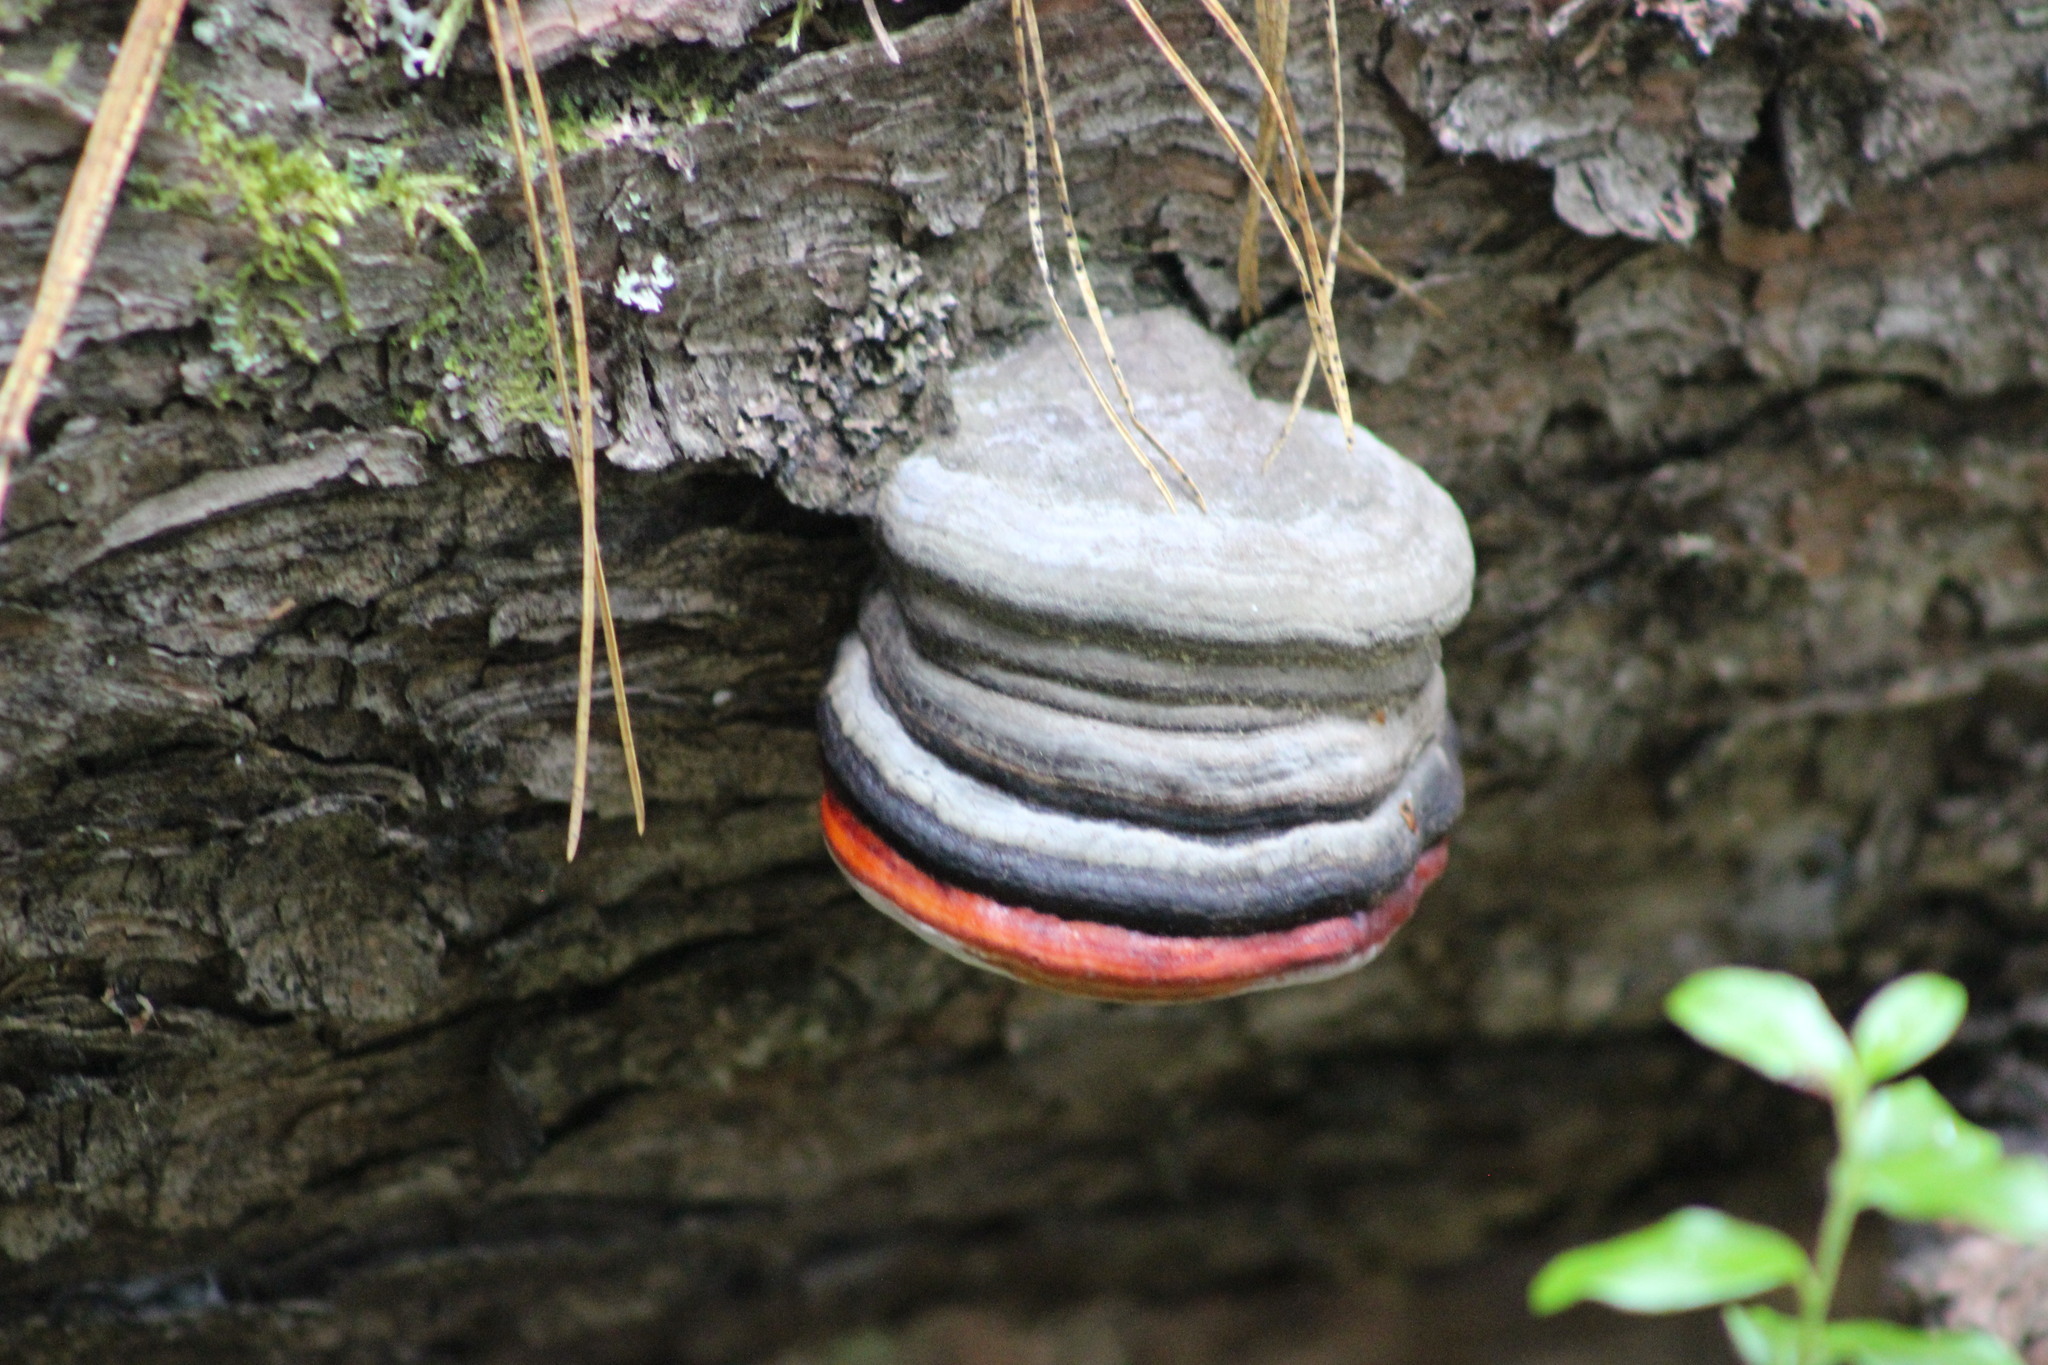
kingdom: Fungi
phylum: Basidiomycota
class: Agaricomycetes
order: Polyporales
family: Fomitopsidaceae
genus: Fomitopsis
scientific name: Fomitopsis pinicola
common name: Red-belted bracket
